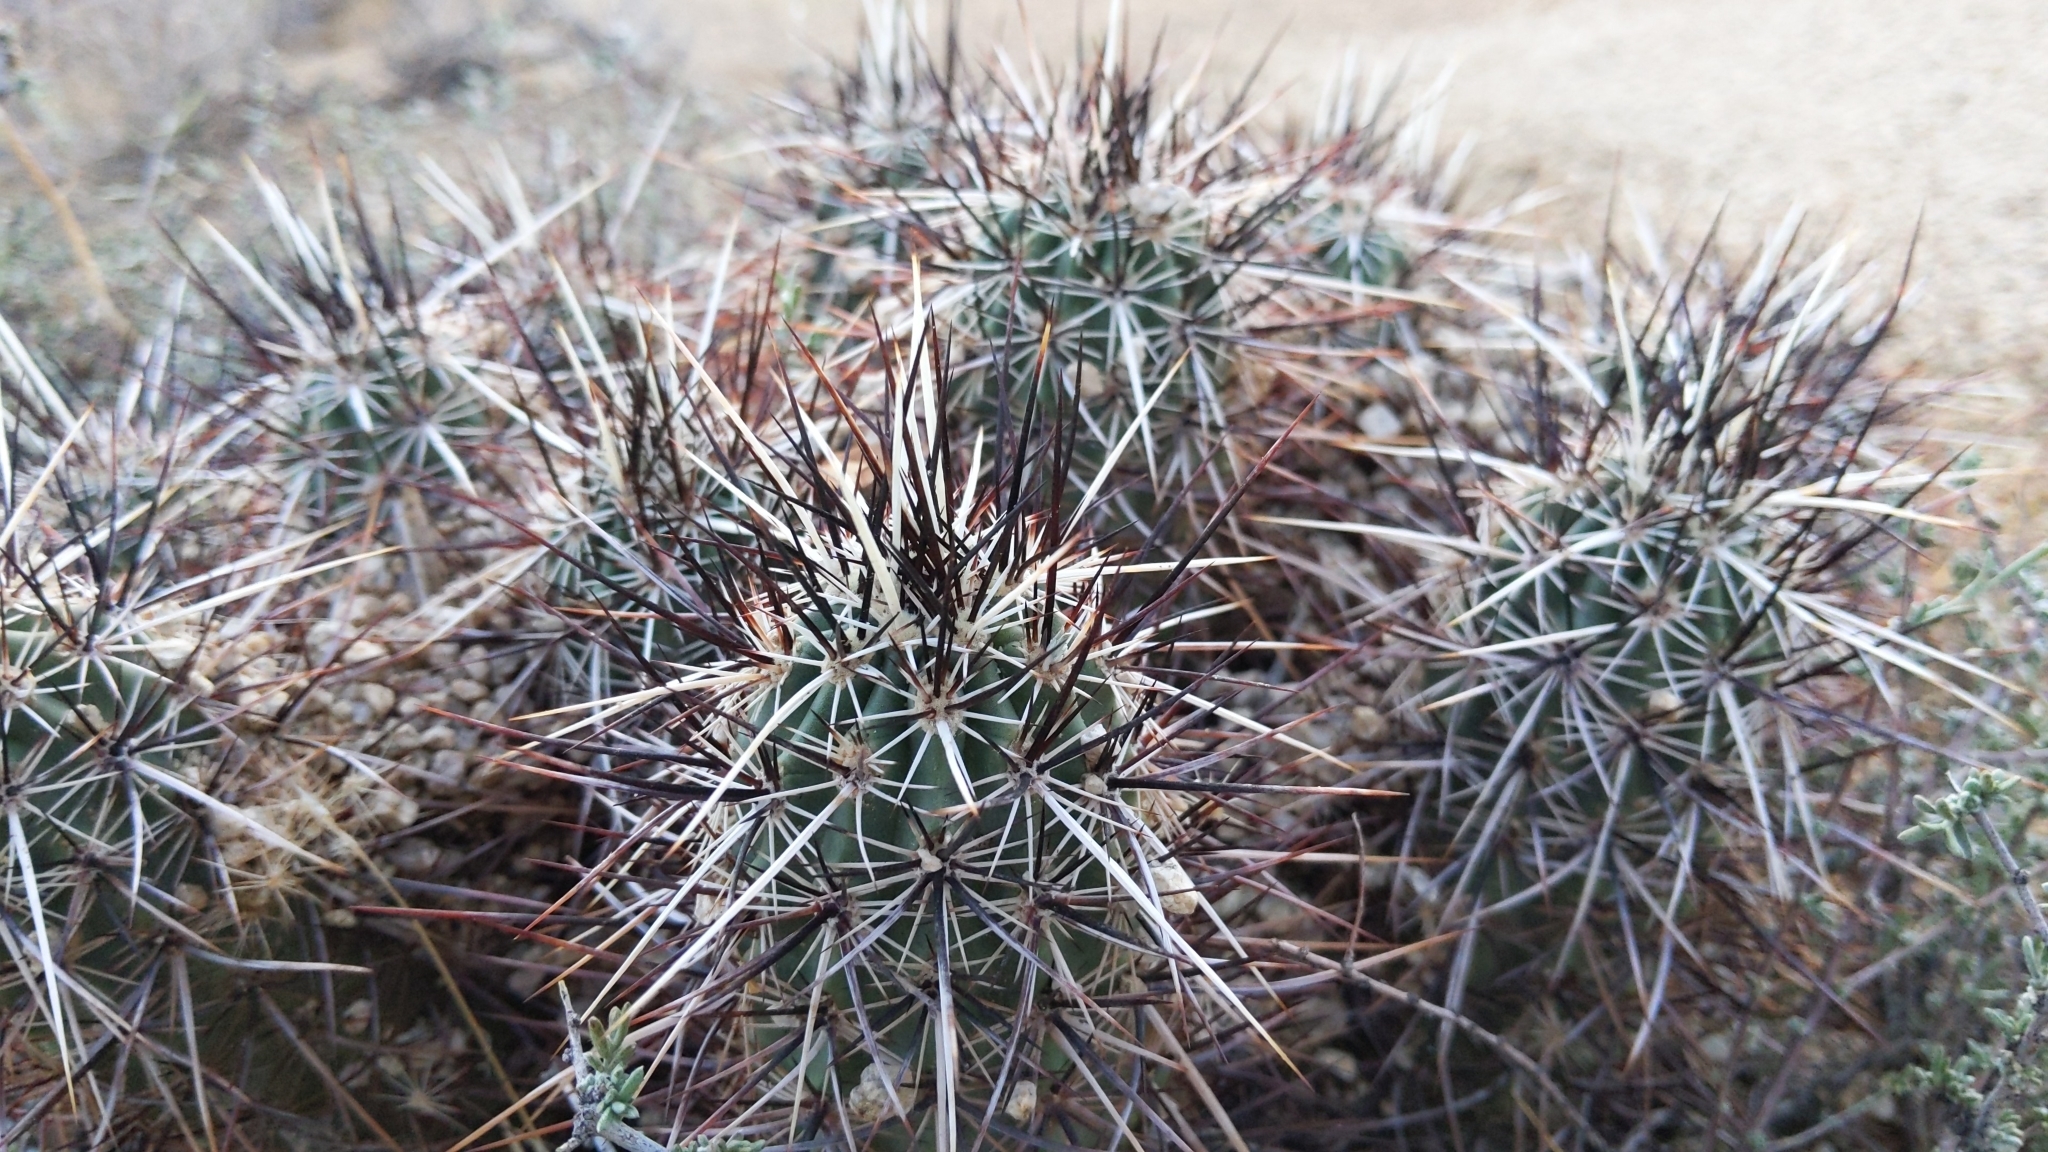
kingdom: Plantae
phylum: Tracheophyta
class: Magnoliopsida
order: Caryophyllales
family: Cactaceae
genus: Echinocereus
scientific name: Echinocereus engelmannii
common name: Engelmann's hedgehog cactus
